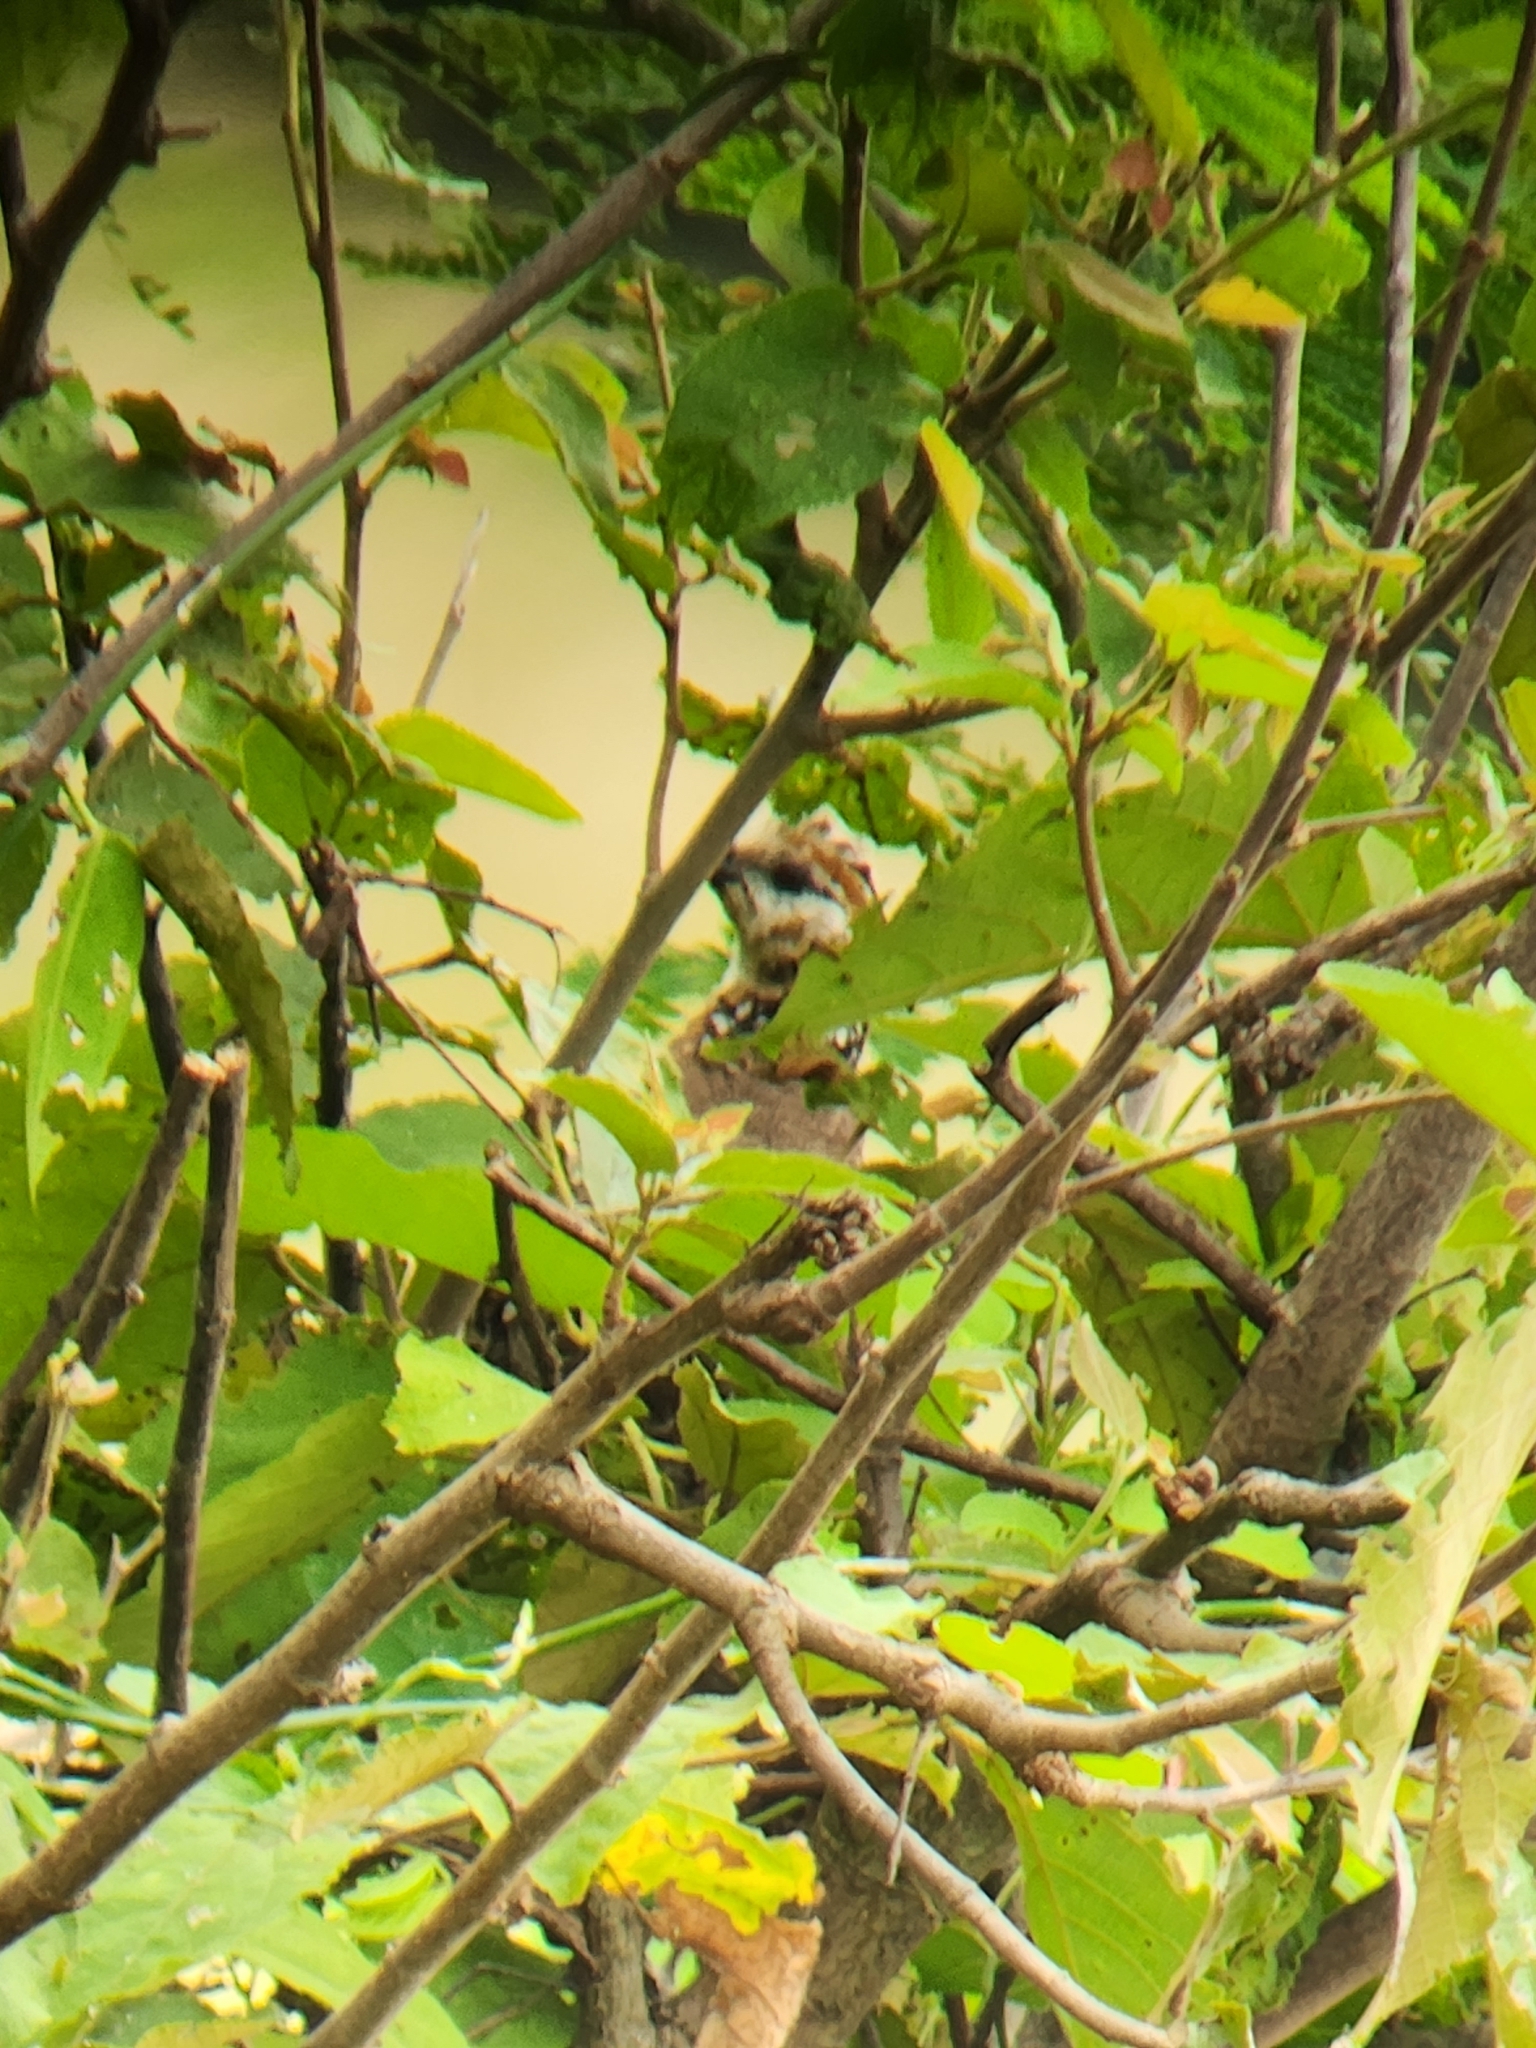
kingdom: Animalia
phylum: Chordata
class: Aves
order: Galliformes
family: Odontophoridae
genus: Colinus
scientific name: Colinus cristatus
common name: Crested bobwhite
